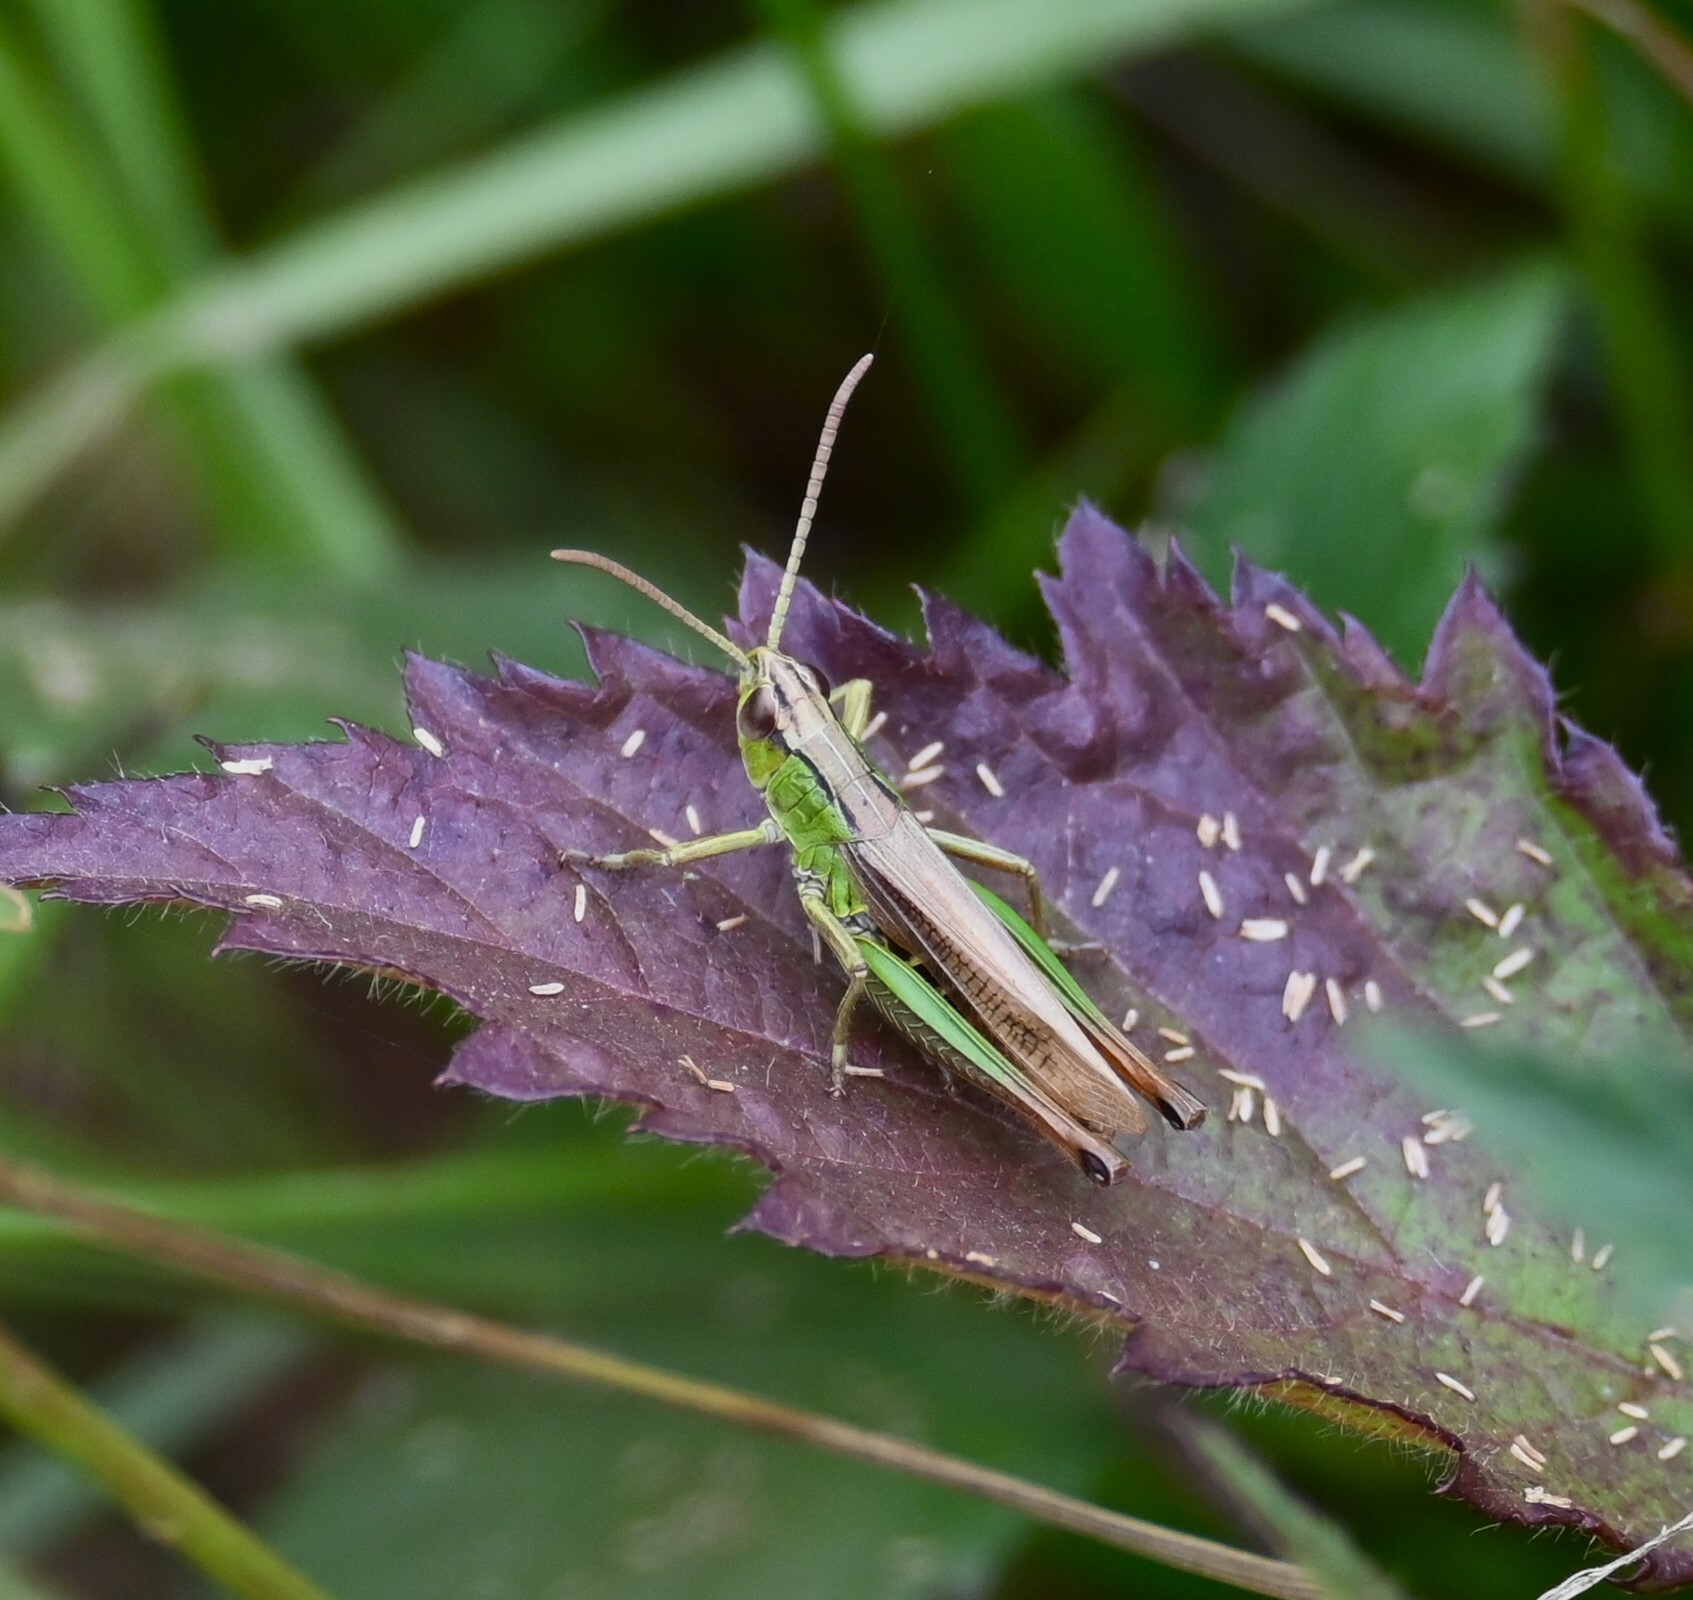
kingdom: Animalia
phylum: Arthropoda
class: Insecta
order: Orthoptera
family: Acrididae
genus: Pseudochorthippus
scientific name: Pseudochorthippus parallelus
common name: Meadow grasshopper
